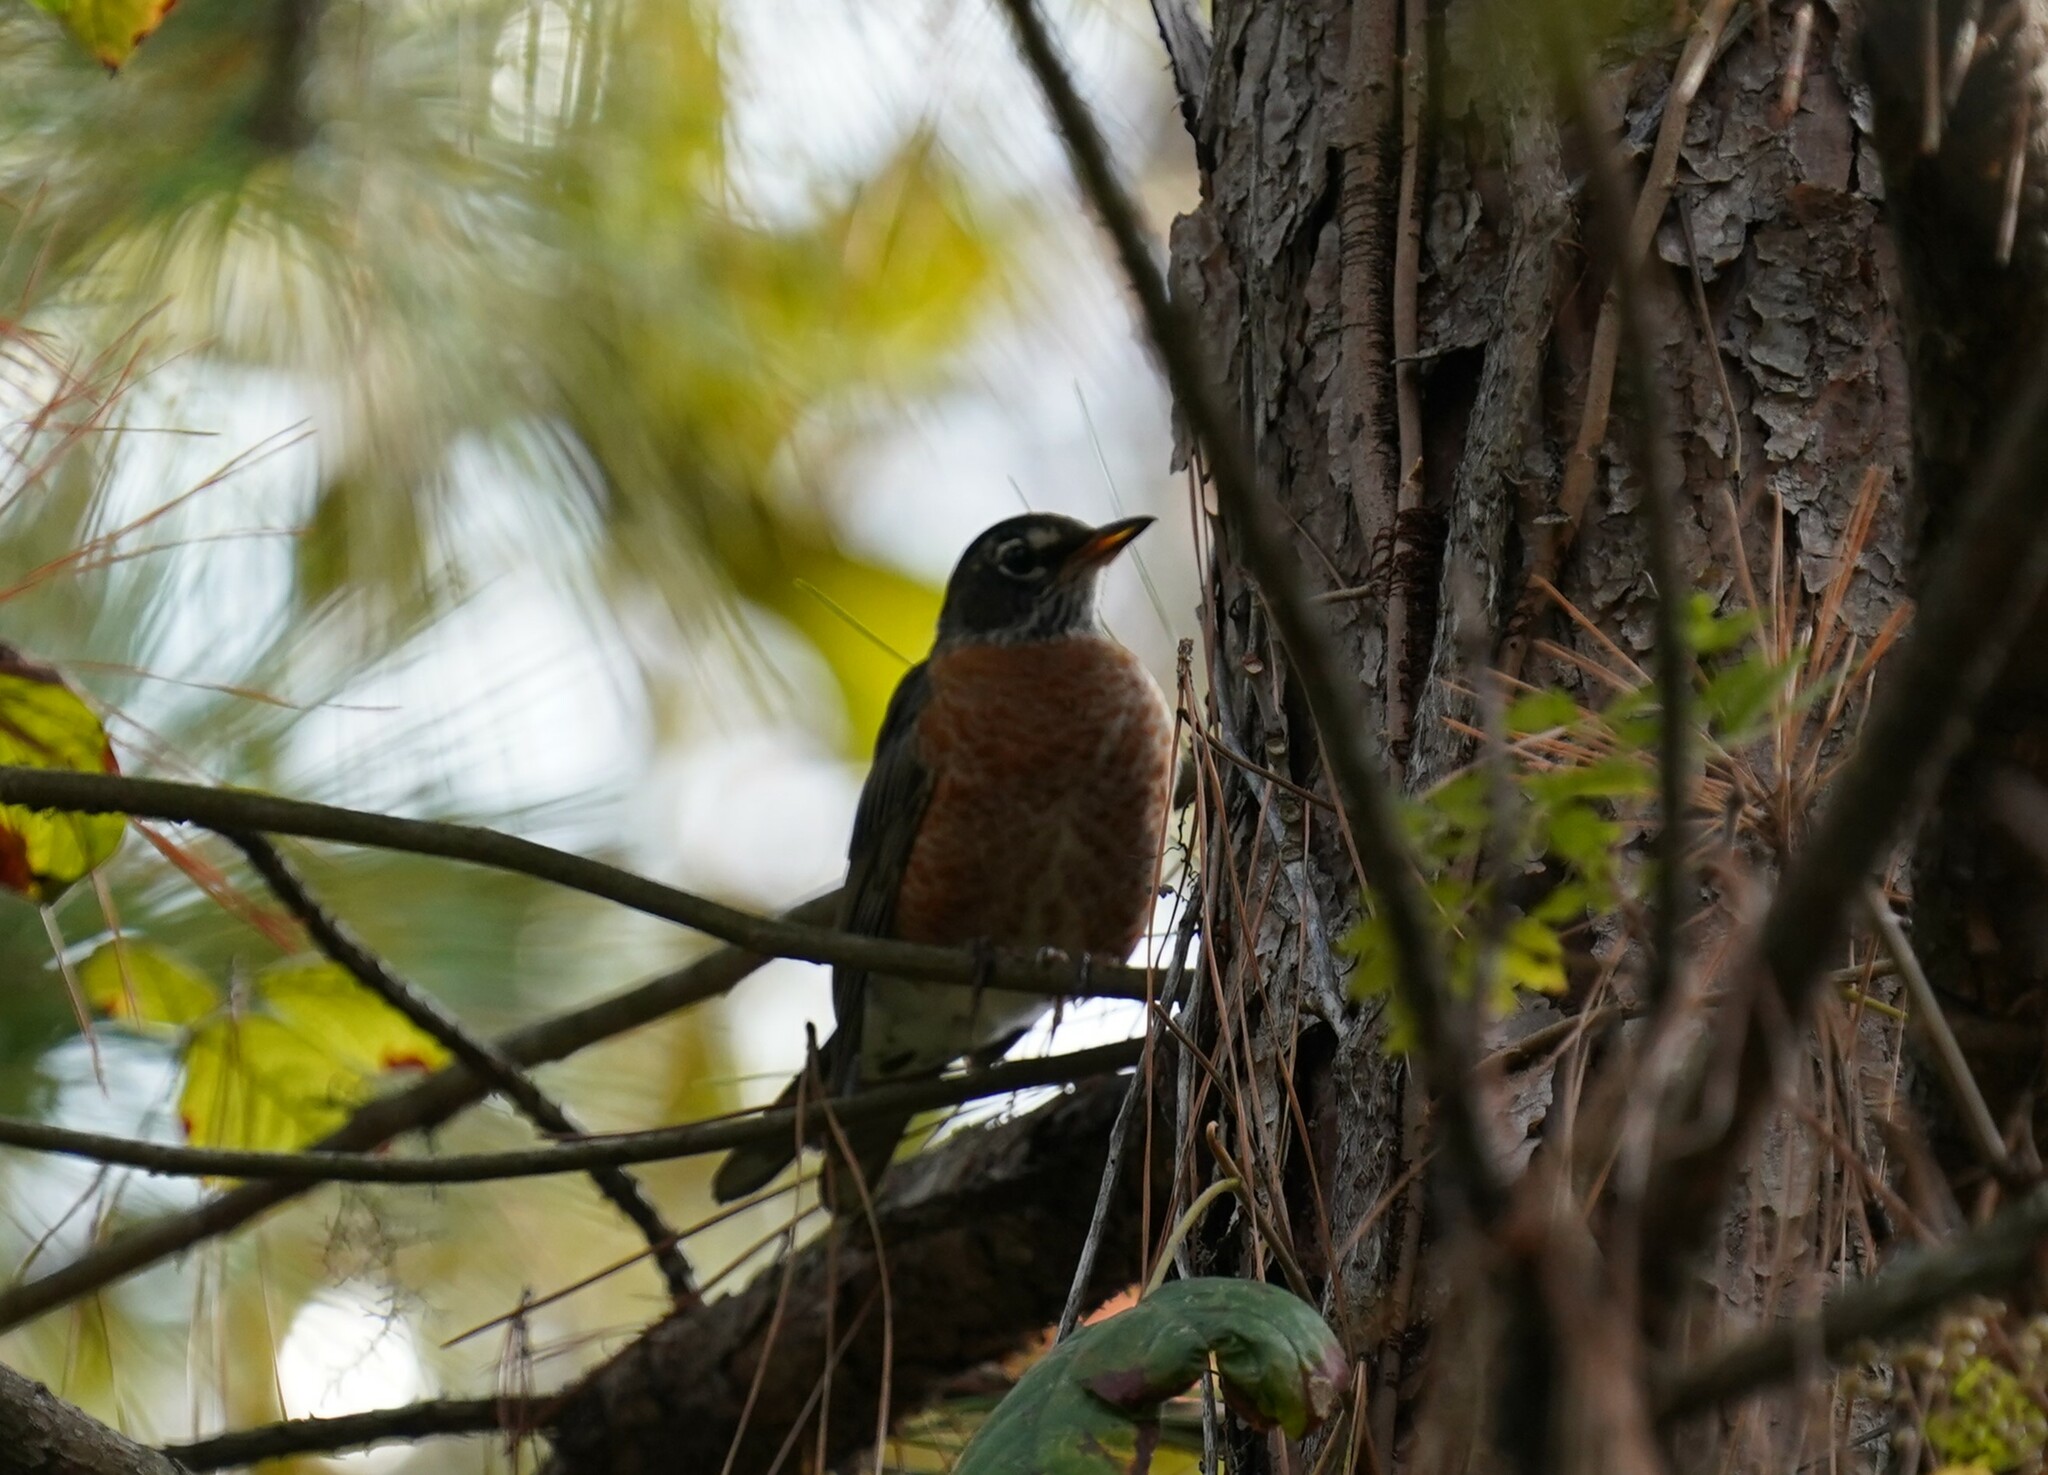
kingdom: Animalia
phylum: Chordata
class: Aves
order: Passeriformes
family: Turdidae
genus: Turdus
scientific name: Turdus migratorius
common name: American robin
